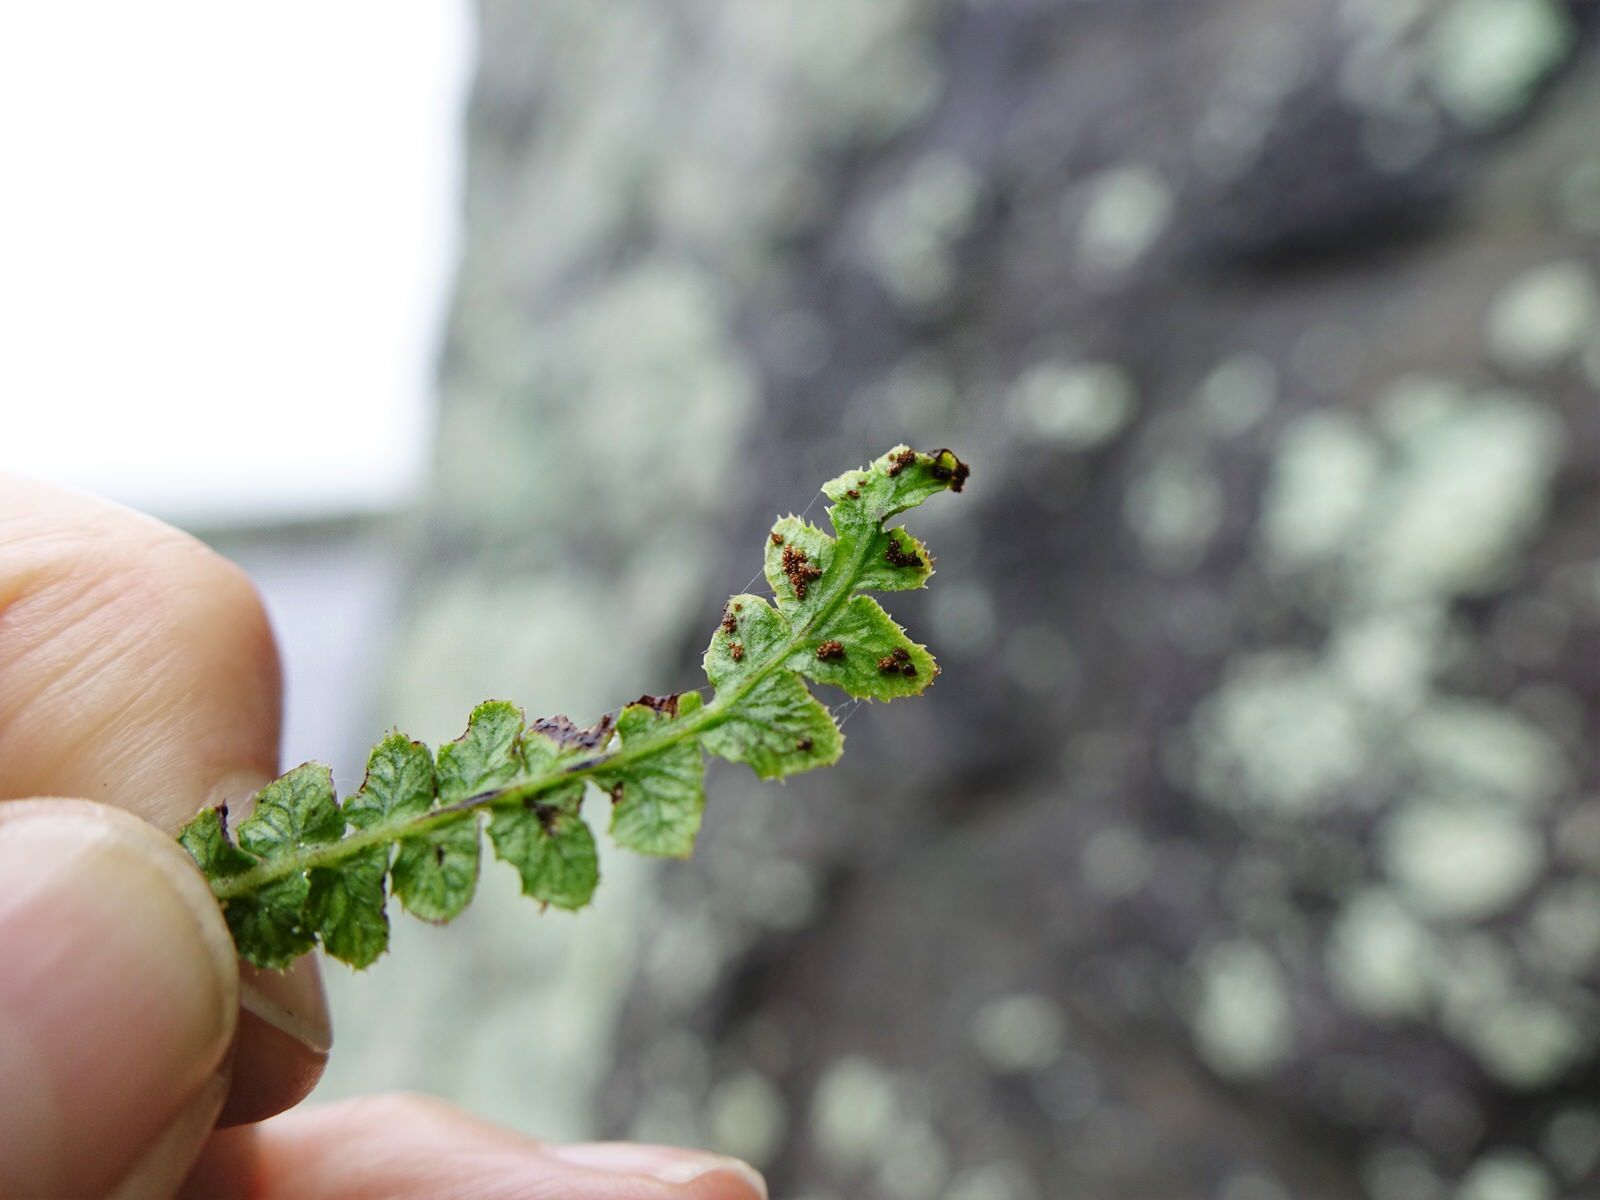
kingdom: Plantae
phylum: Tracheophyta
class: Polypodiopsida
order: Polypodiales
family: Blechnaceae
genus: Doodia
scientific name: Doodia australis
